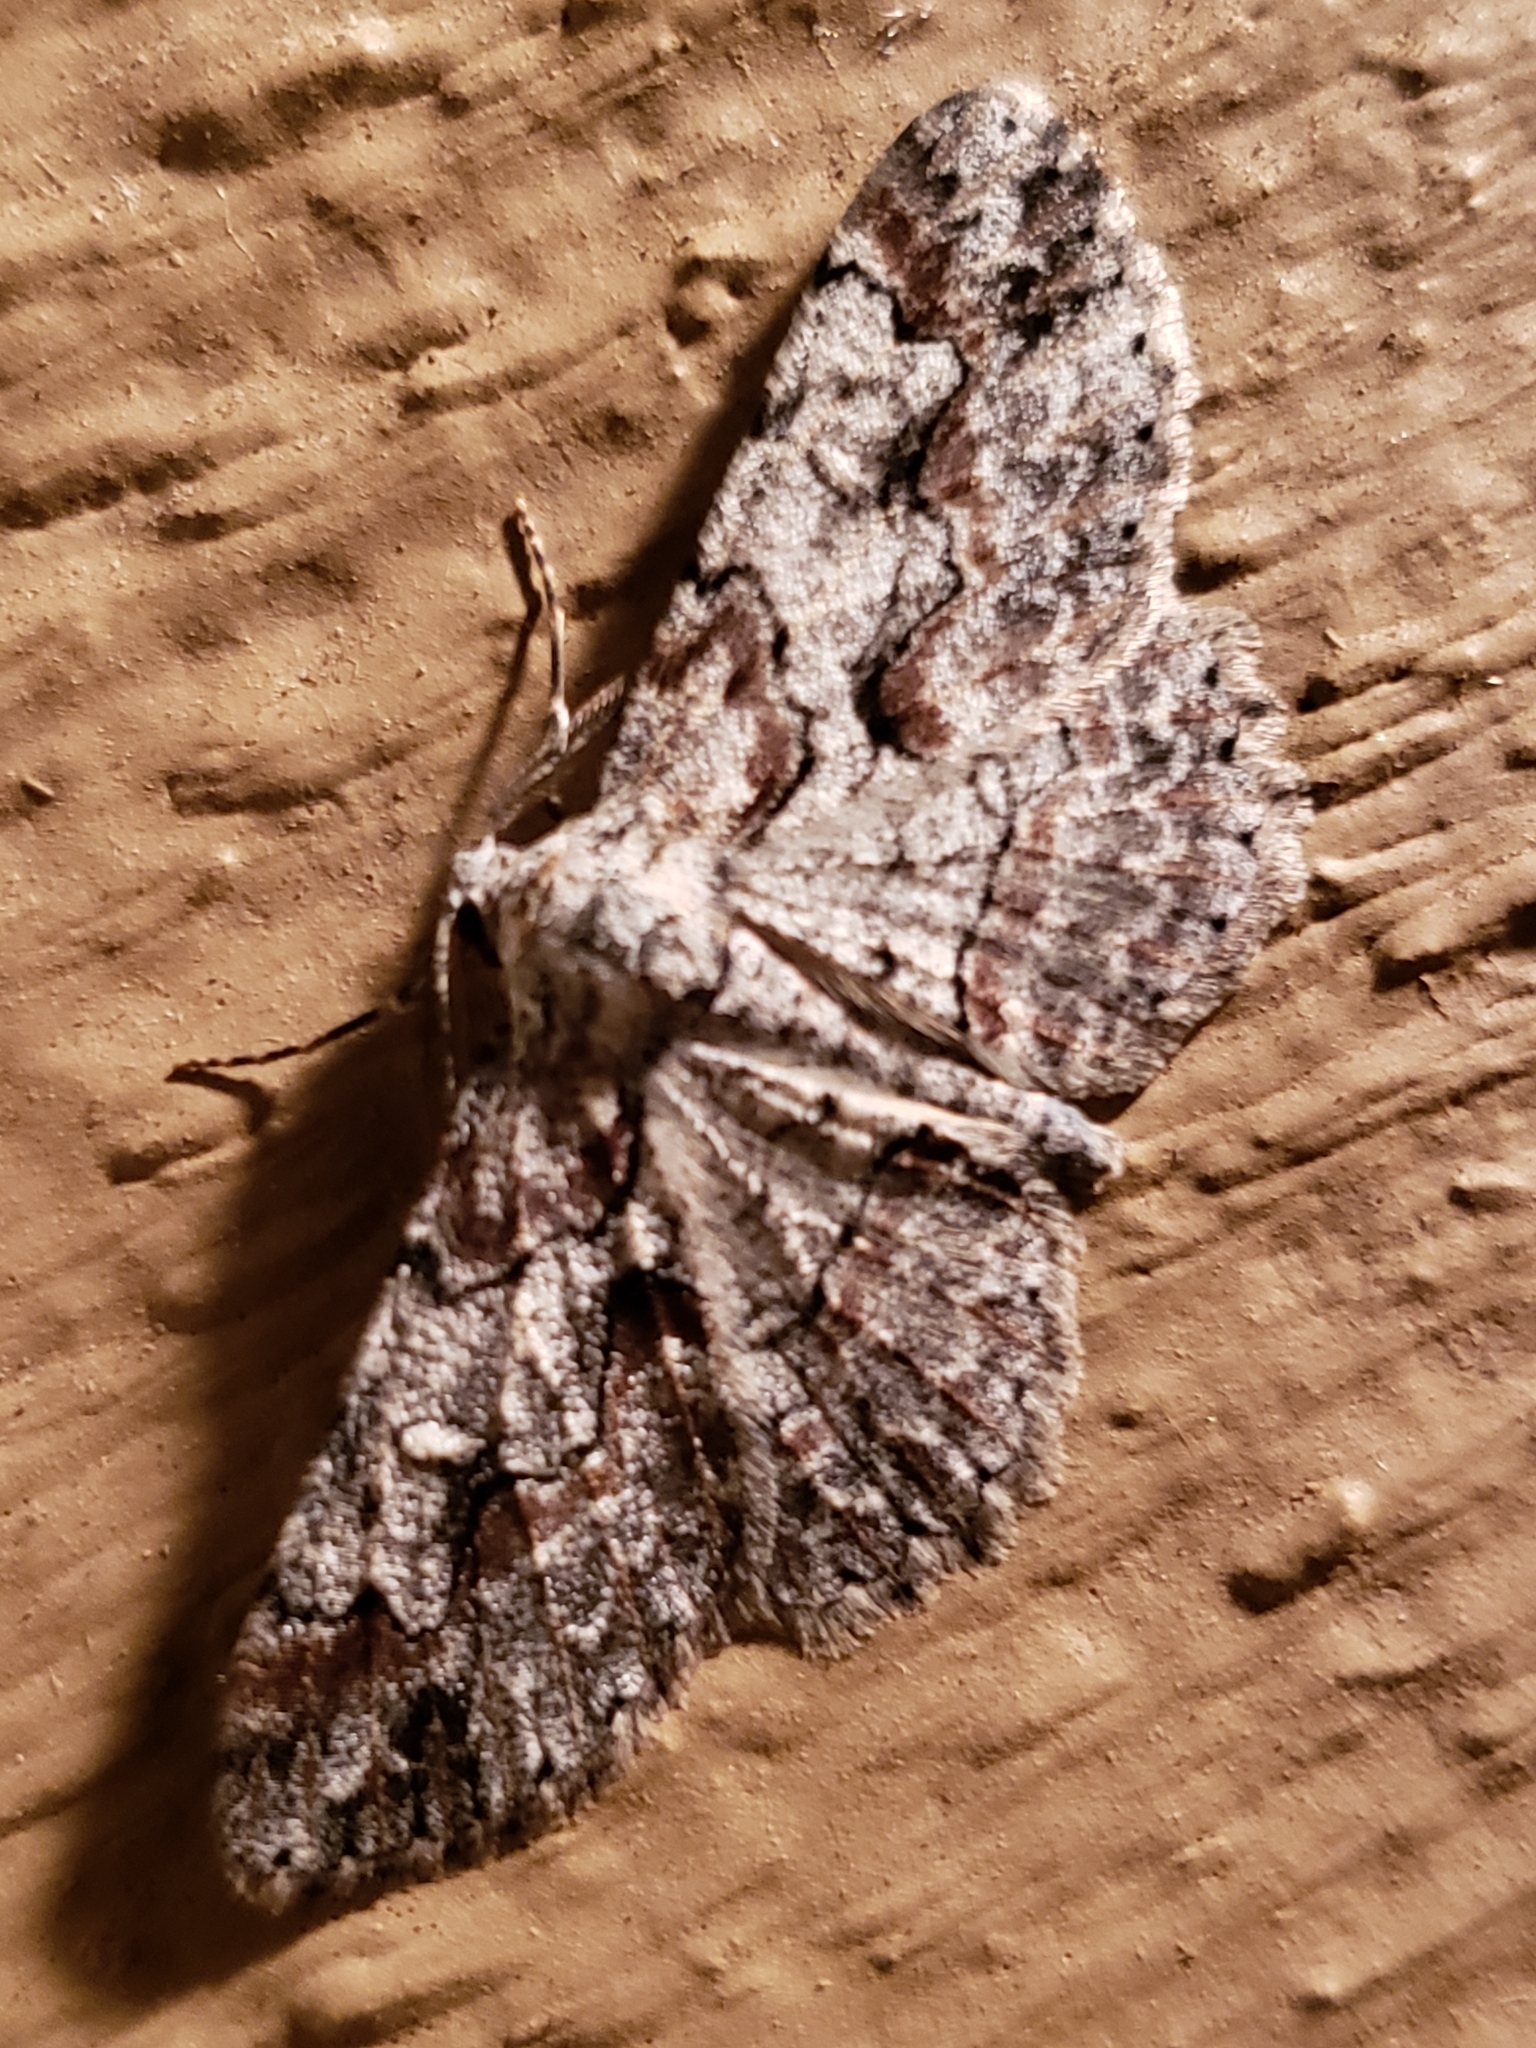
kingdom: Animalia
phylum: Arthropoda
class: Insecta
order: Lepidoptera
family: Geometridae
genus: Iridopsis
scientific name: Iridopsis defectaria
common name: Brown-shaded gray
